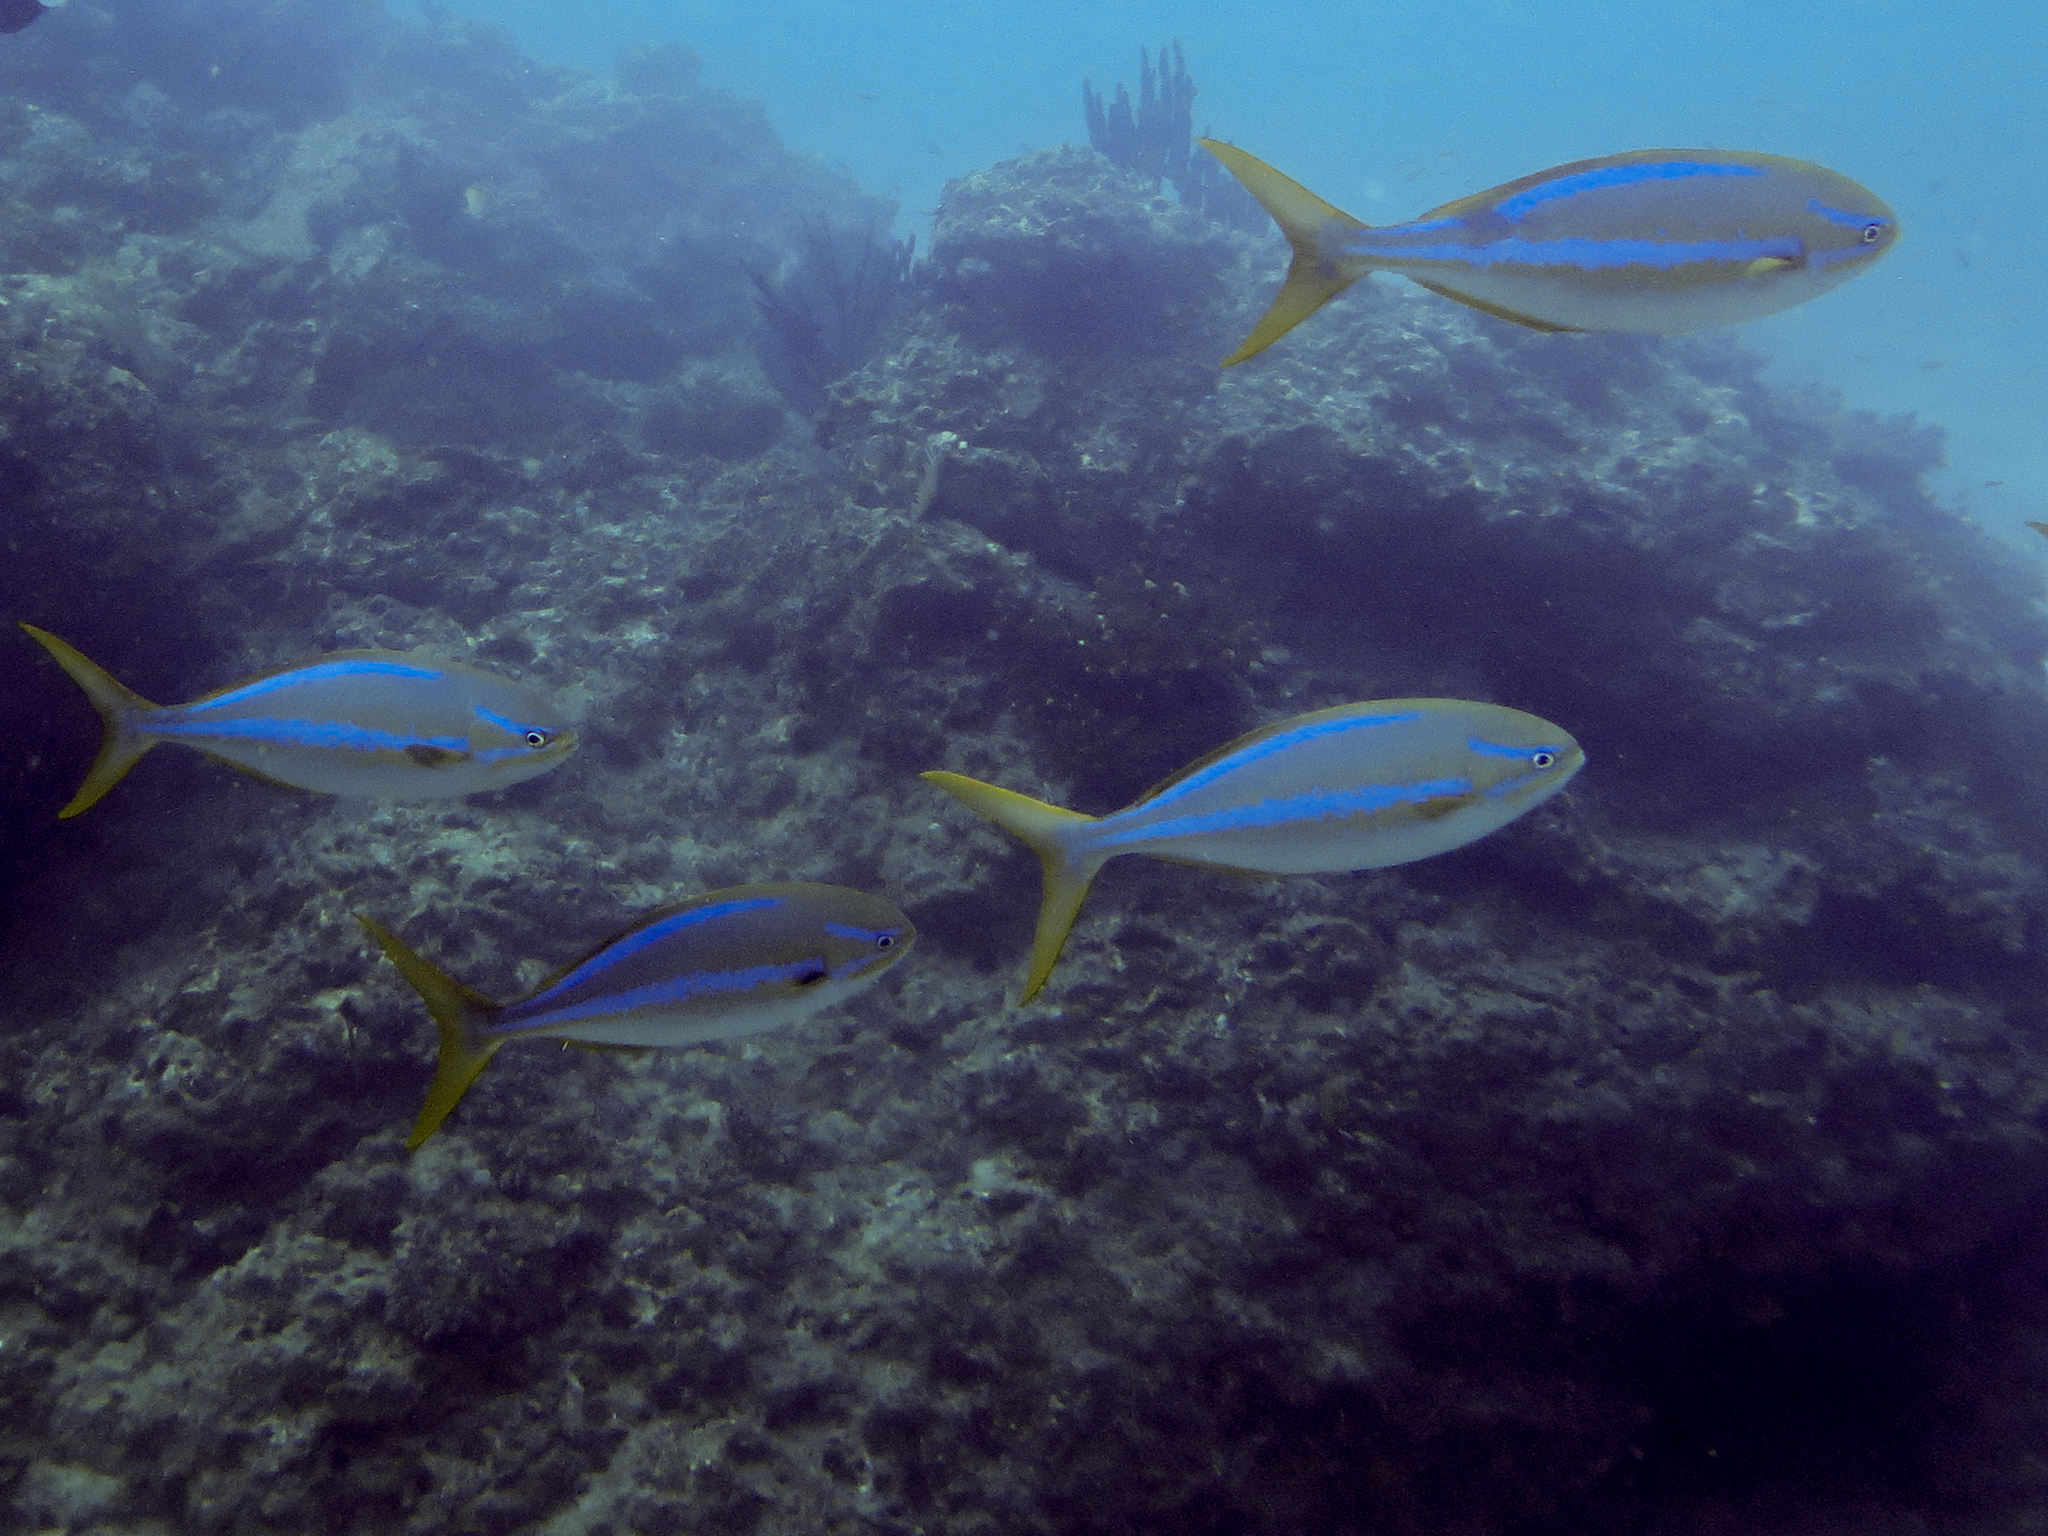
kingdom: Animalia
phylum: Chordata
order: Perciformes
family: Kyphosidae
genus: Kyphosus
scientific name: Kyphosus ocyurus
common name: Bluestriped chub
